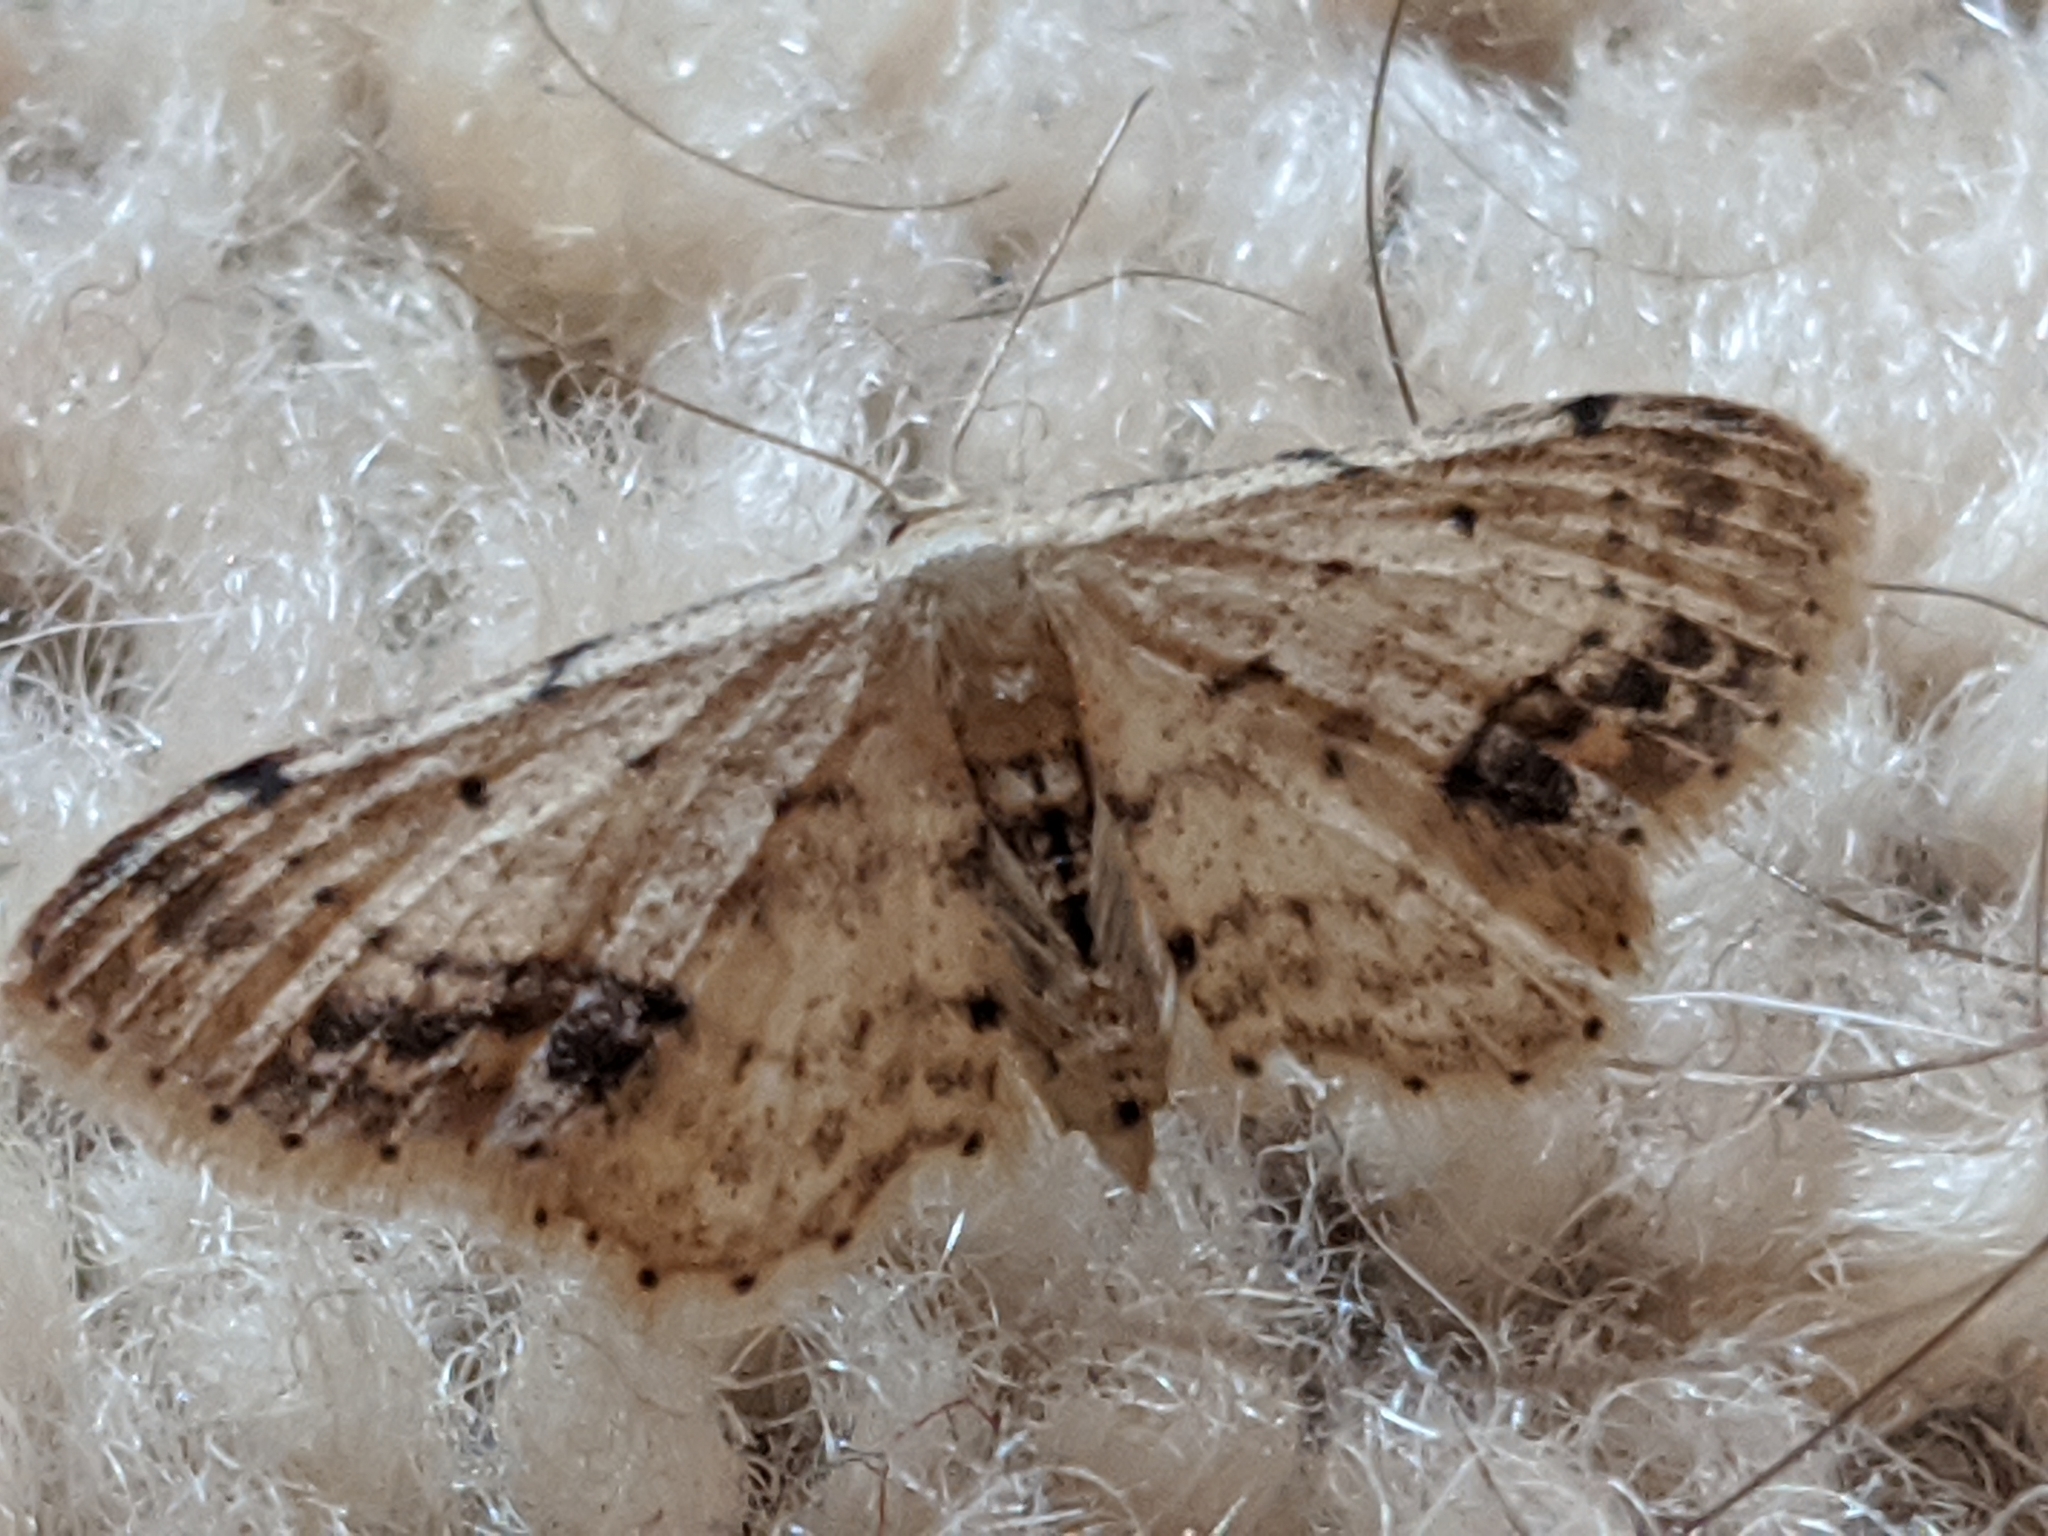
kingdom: Animalia
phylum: Arthropoda
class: Insecta
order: Lepidoptera
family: Geometridae
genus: Idaea
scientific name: Idaea dimidiata
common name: Single-dotted wave
